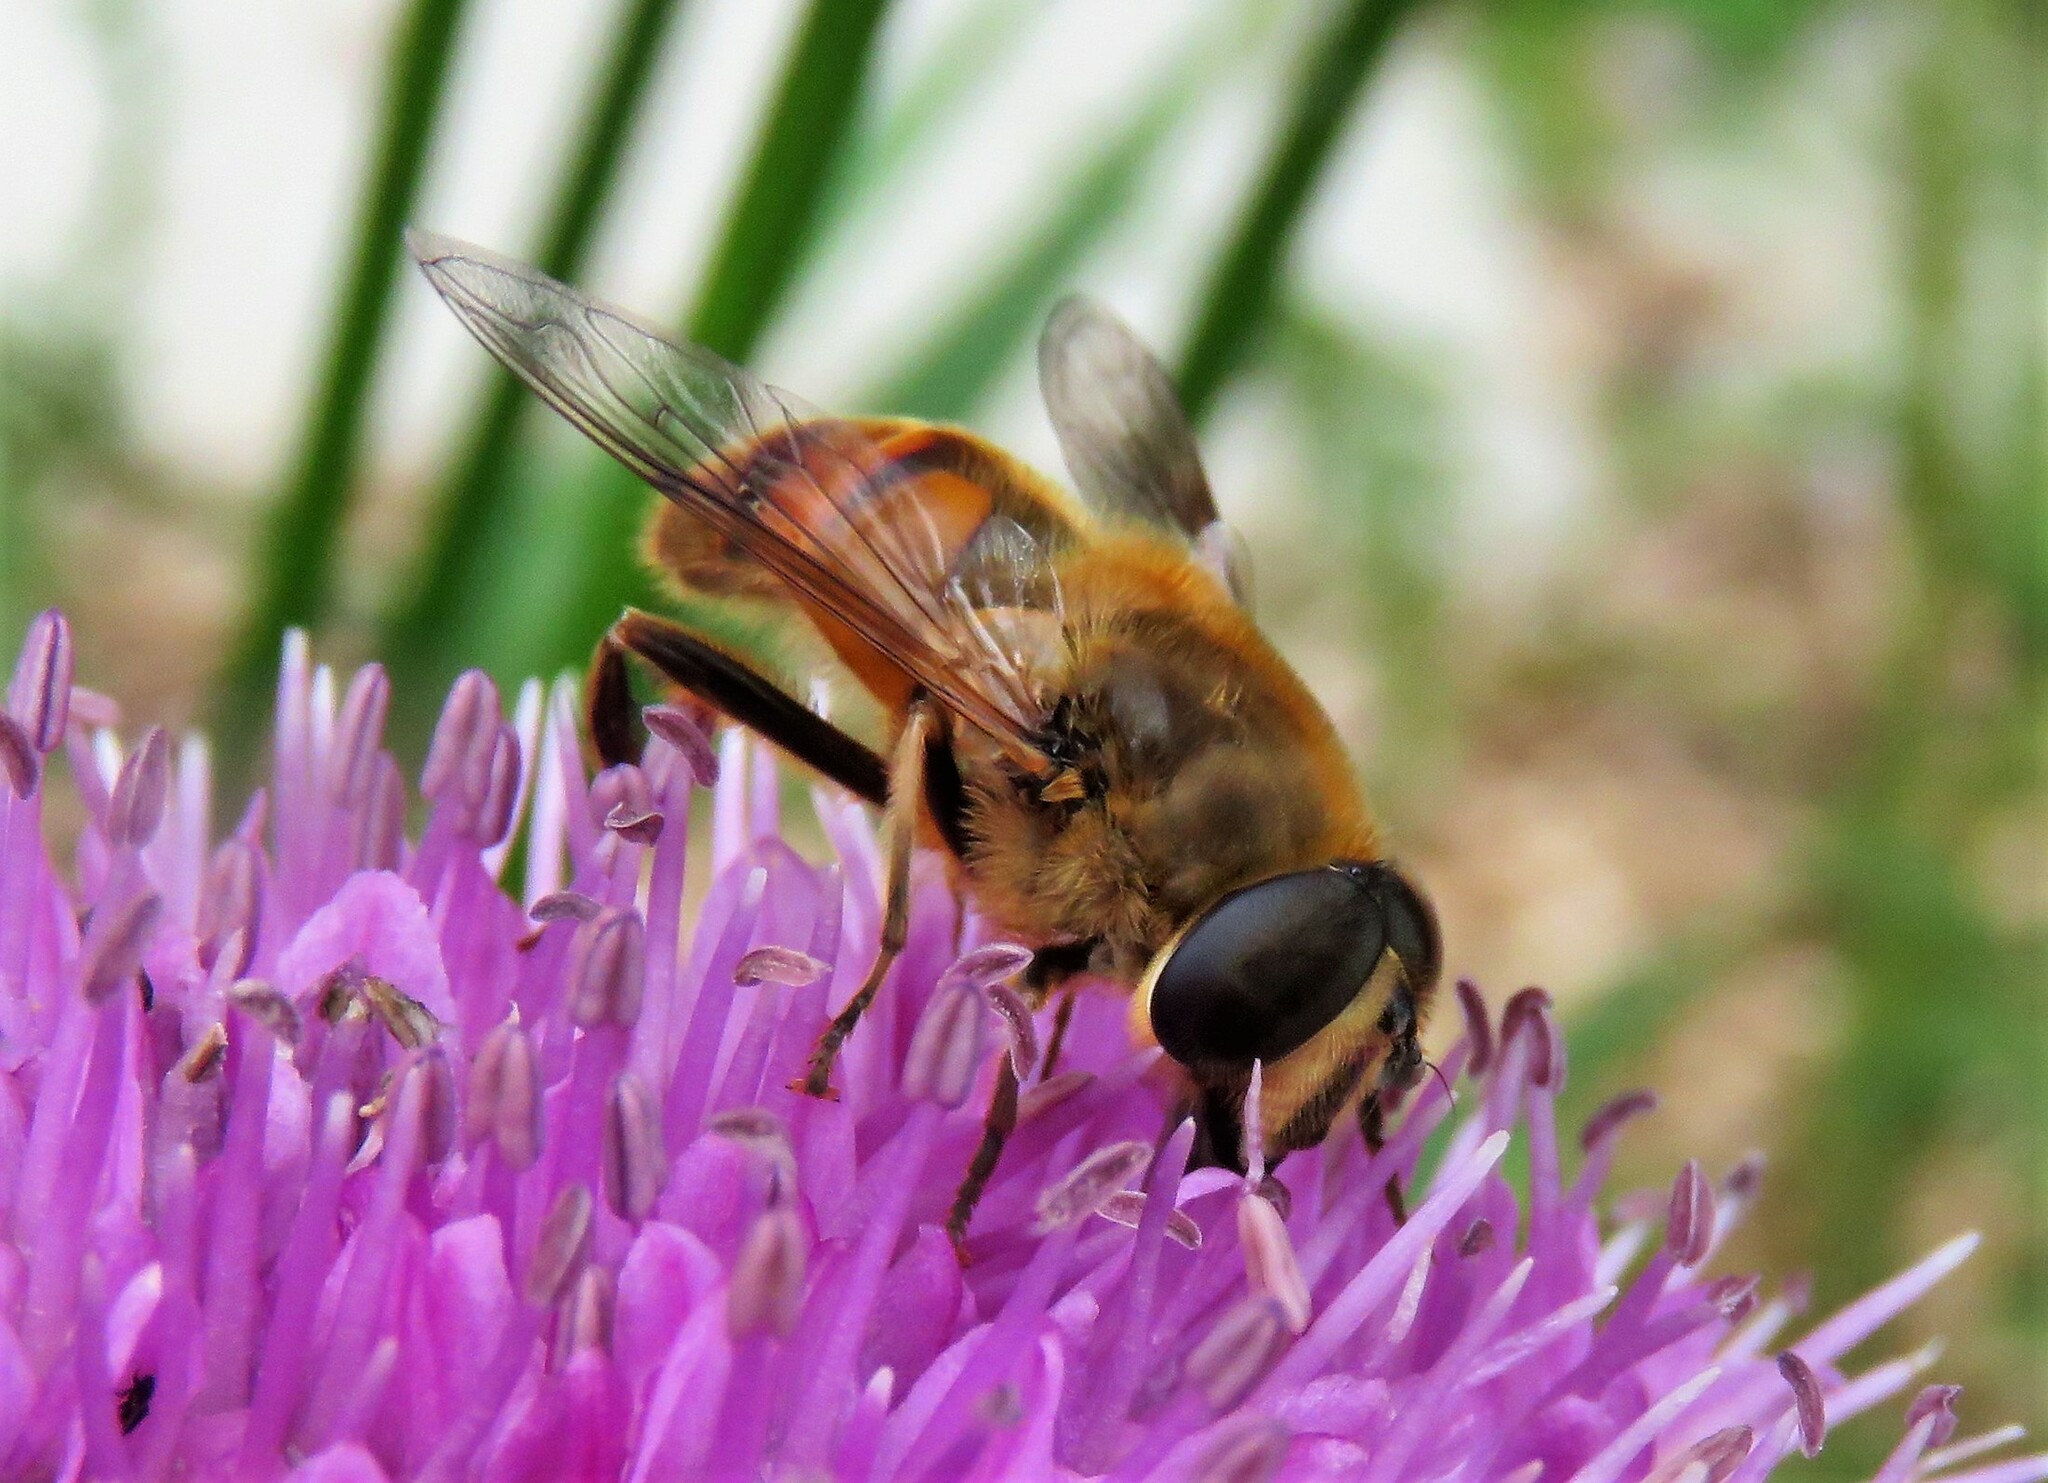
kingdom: Animalia
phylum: Arthropoda
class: Insecta
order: Diptera
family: Syrphidae
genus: Eristalis
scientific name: Eristalis tenax
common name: Drone fly
